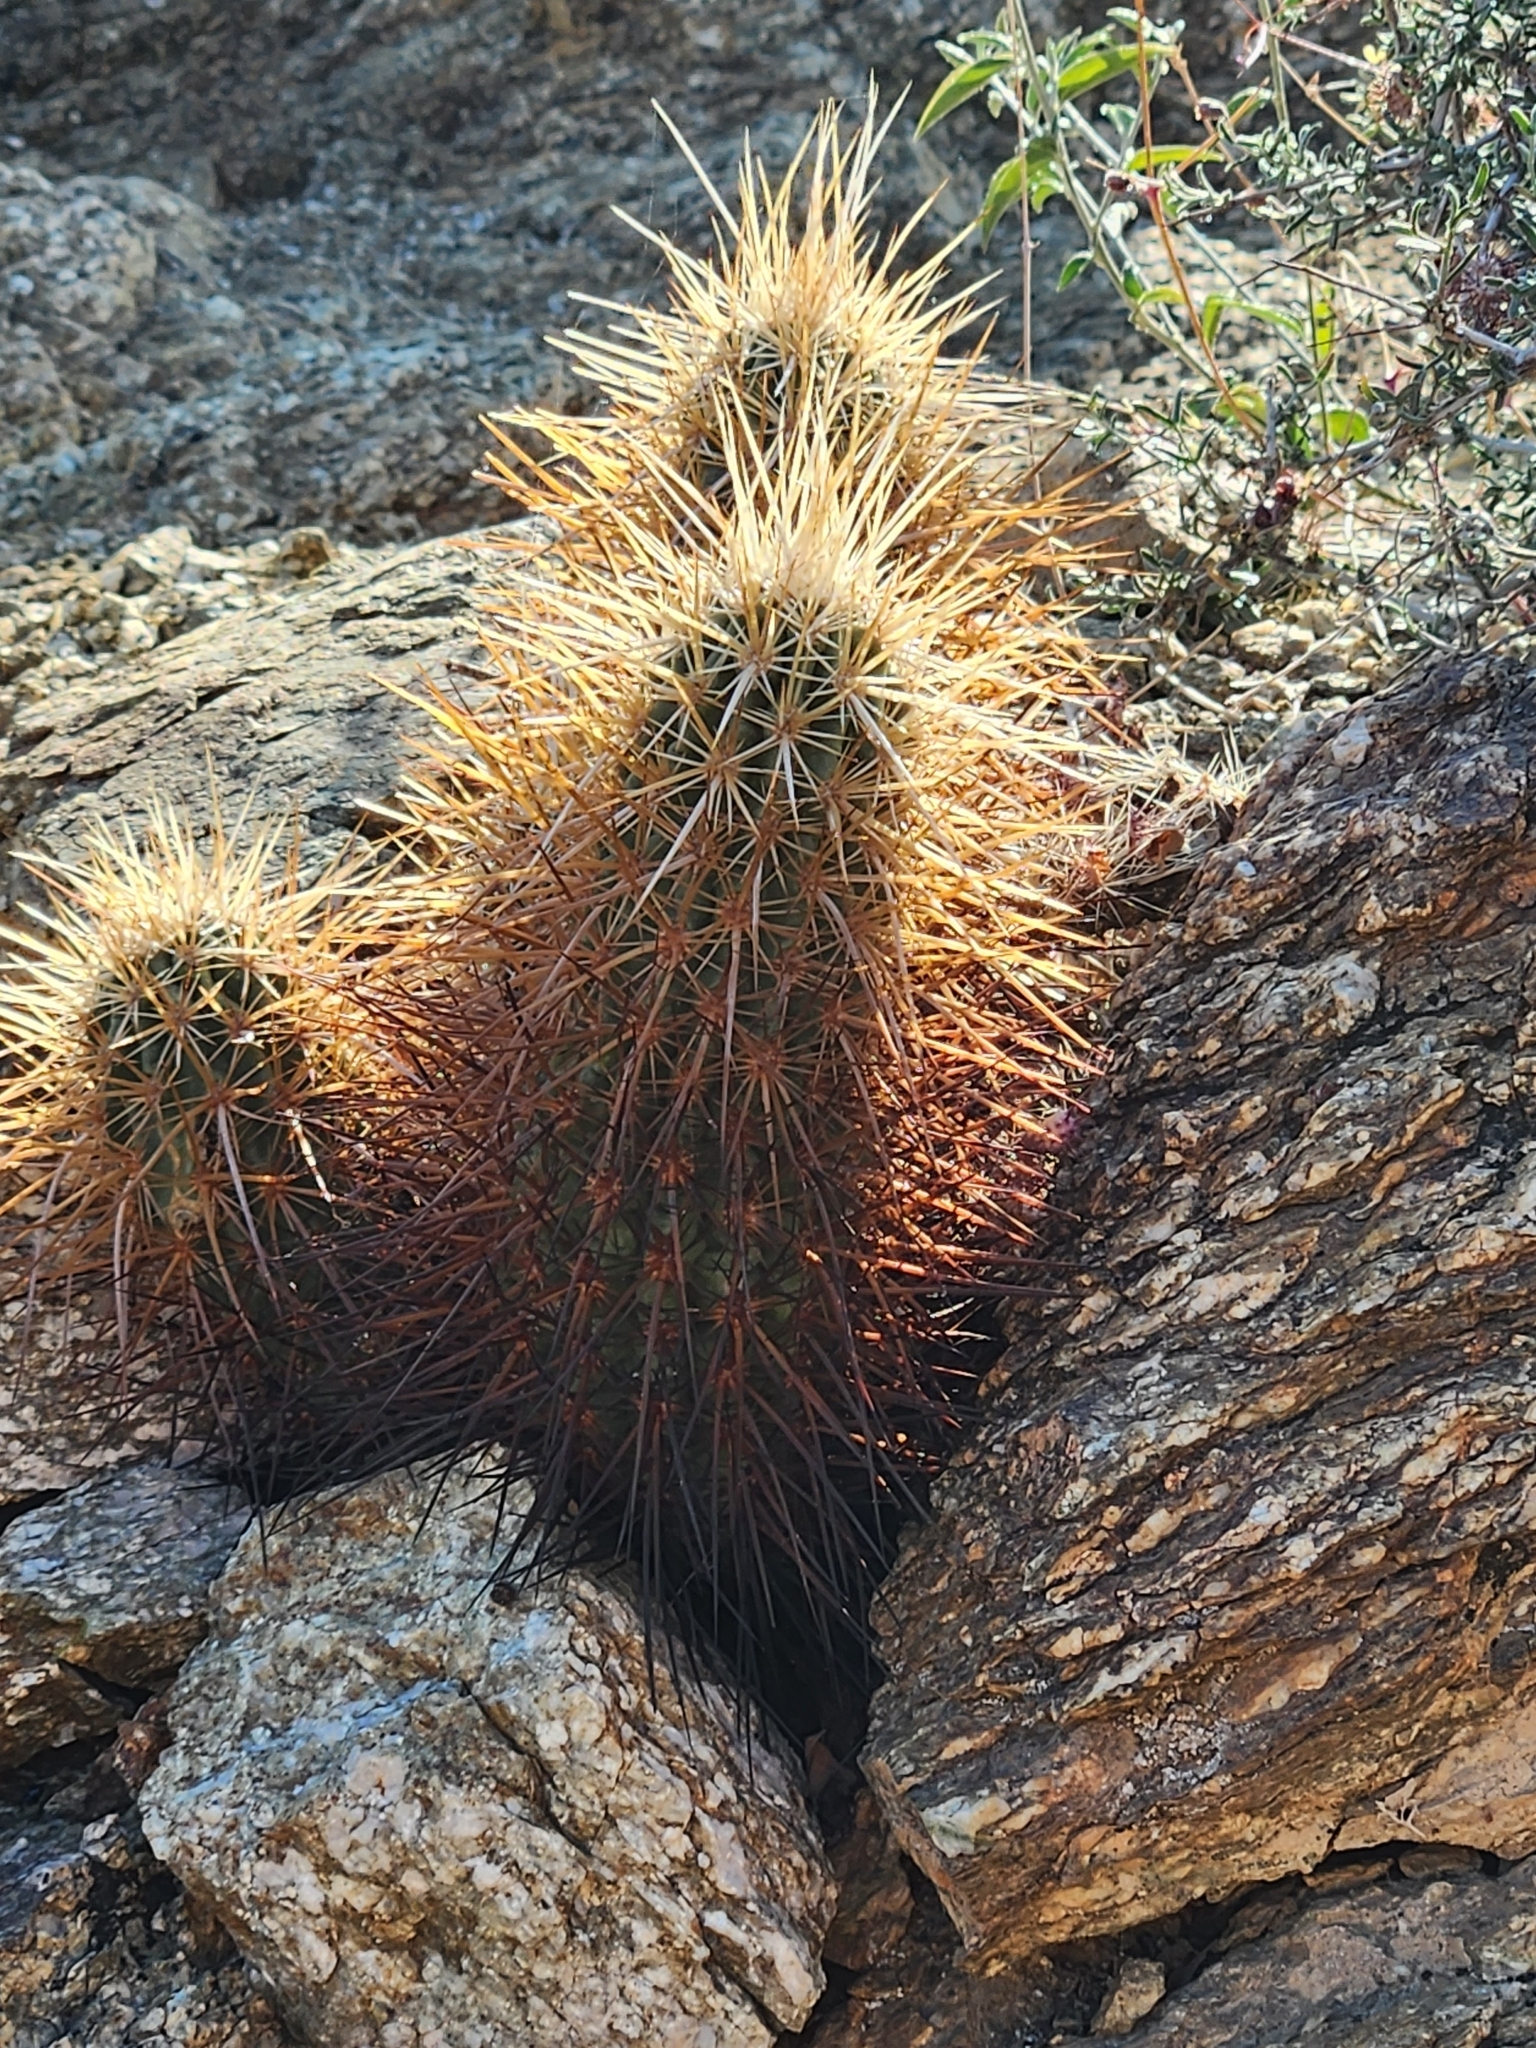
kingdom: Plantae
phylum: Tracheophyta
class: Magnoliopsida
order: Caryophyllales
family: Cactaceae
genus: Echinocereus
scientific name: Echinocereus engelmannii
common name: Engelmann's hedgehog cactus
